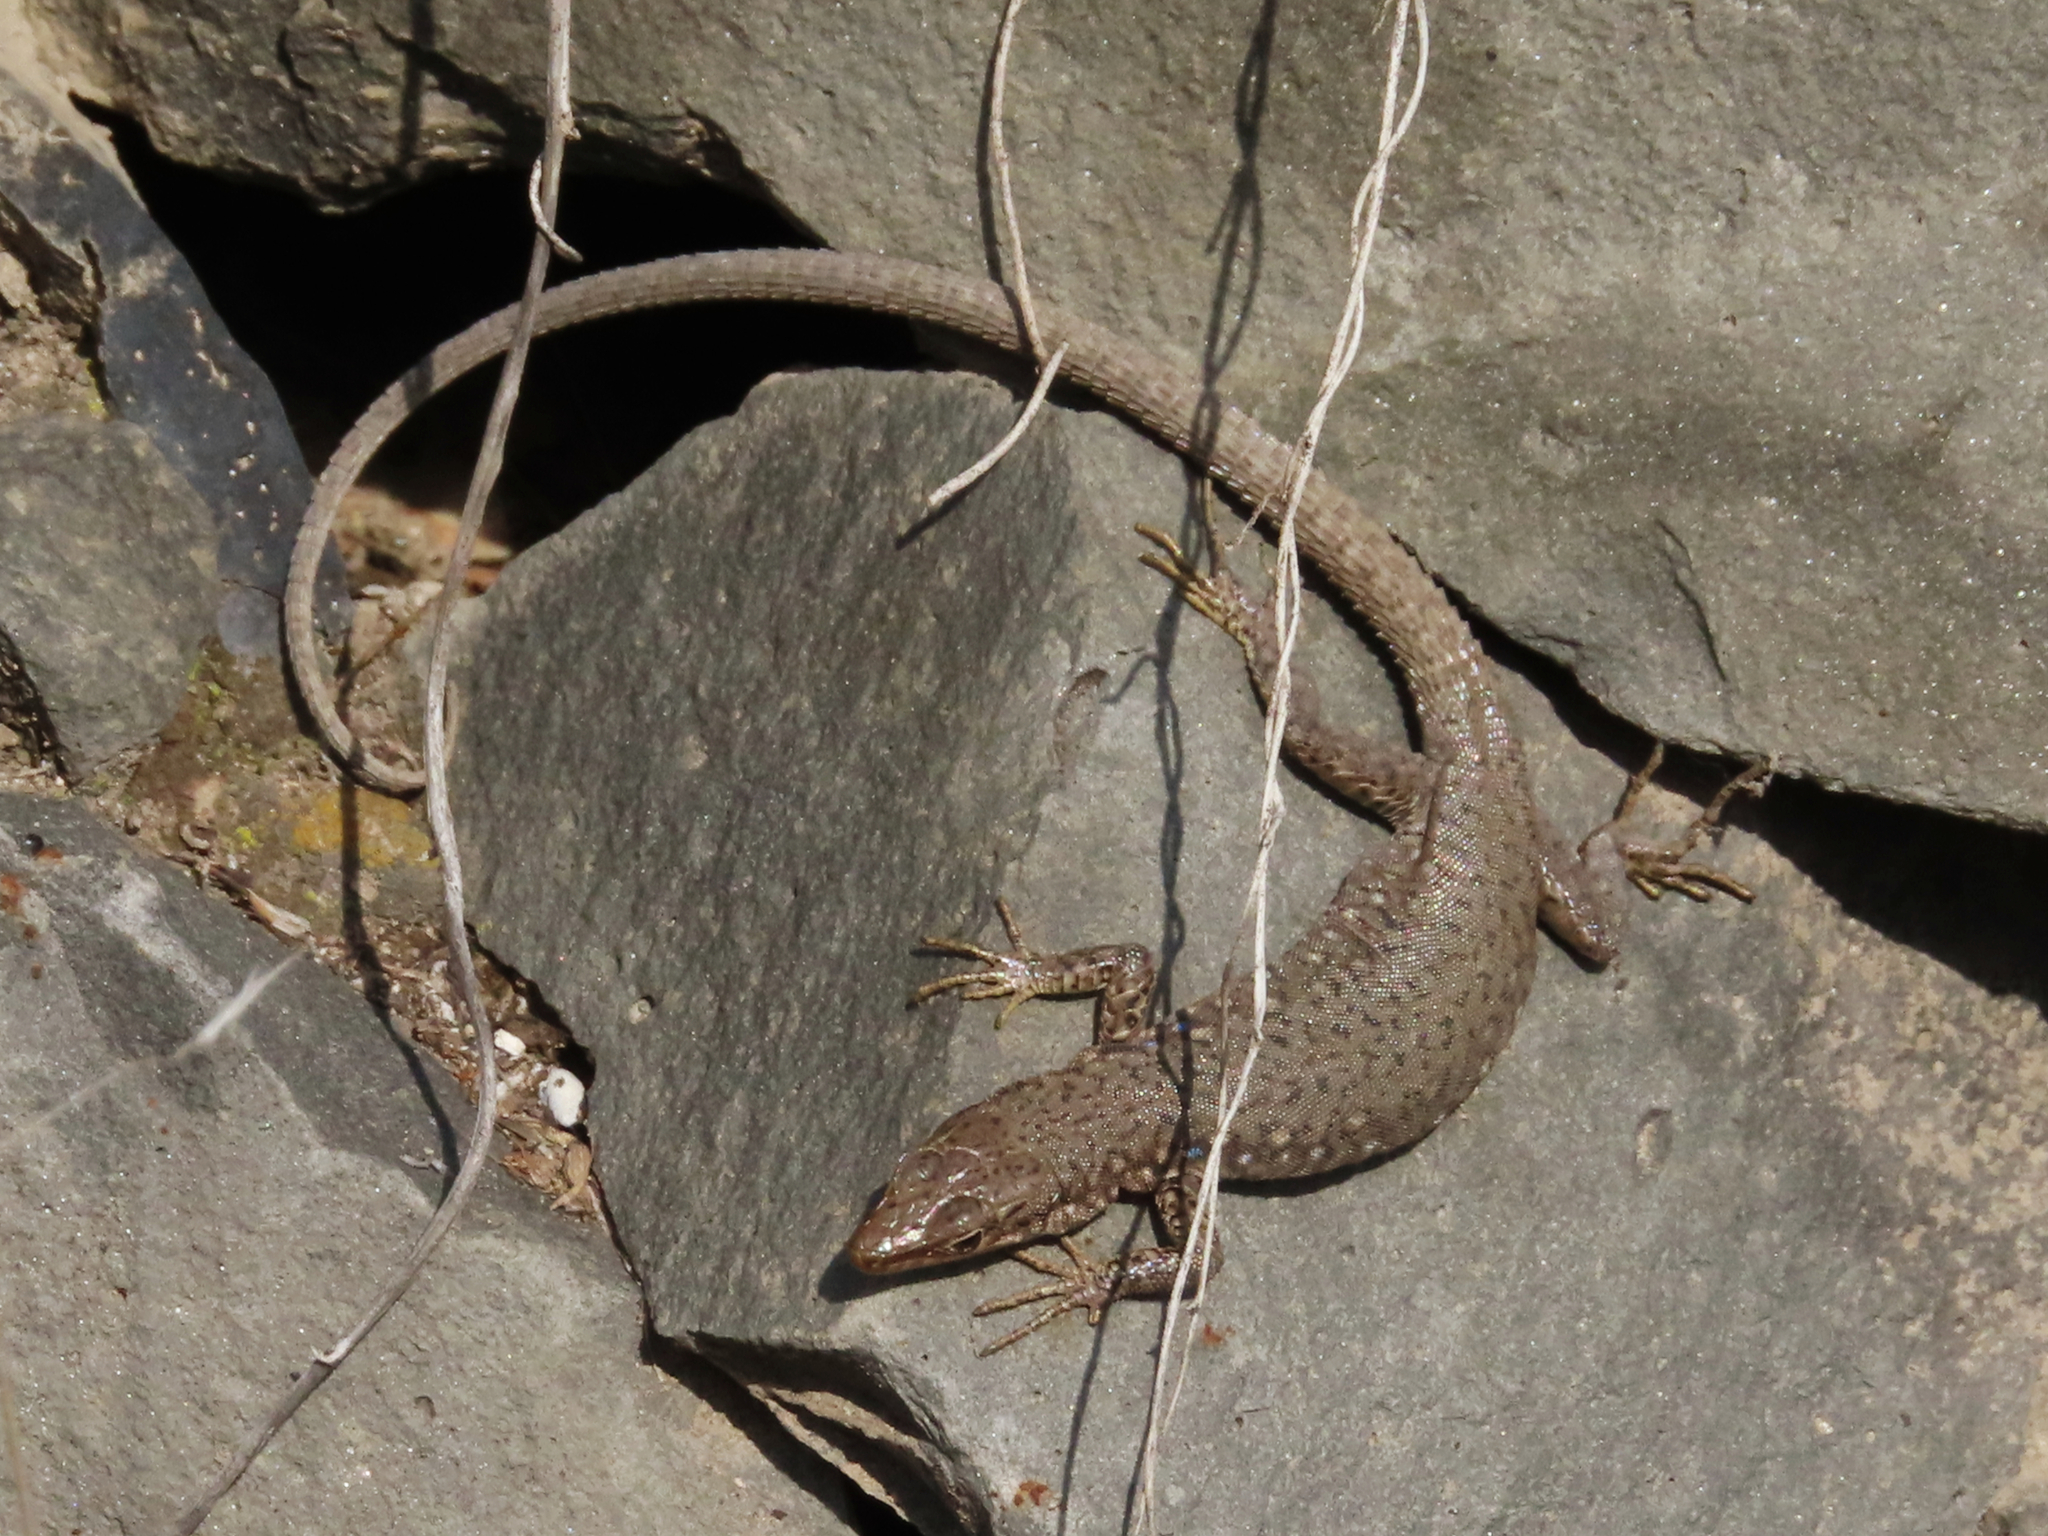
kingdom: Animalia
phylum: Chordata
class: Squamata
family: Lacertidae
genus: Darevskia
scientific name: Darevskia
